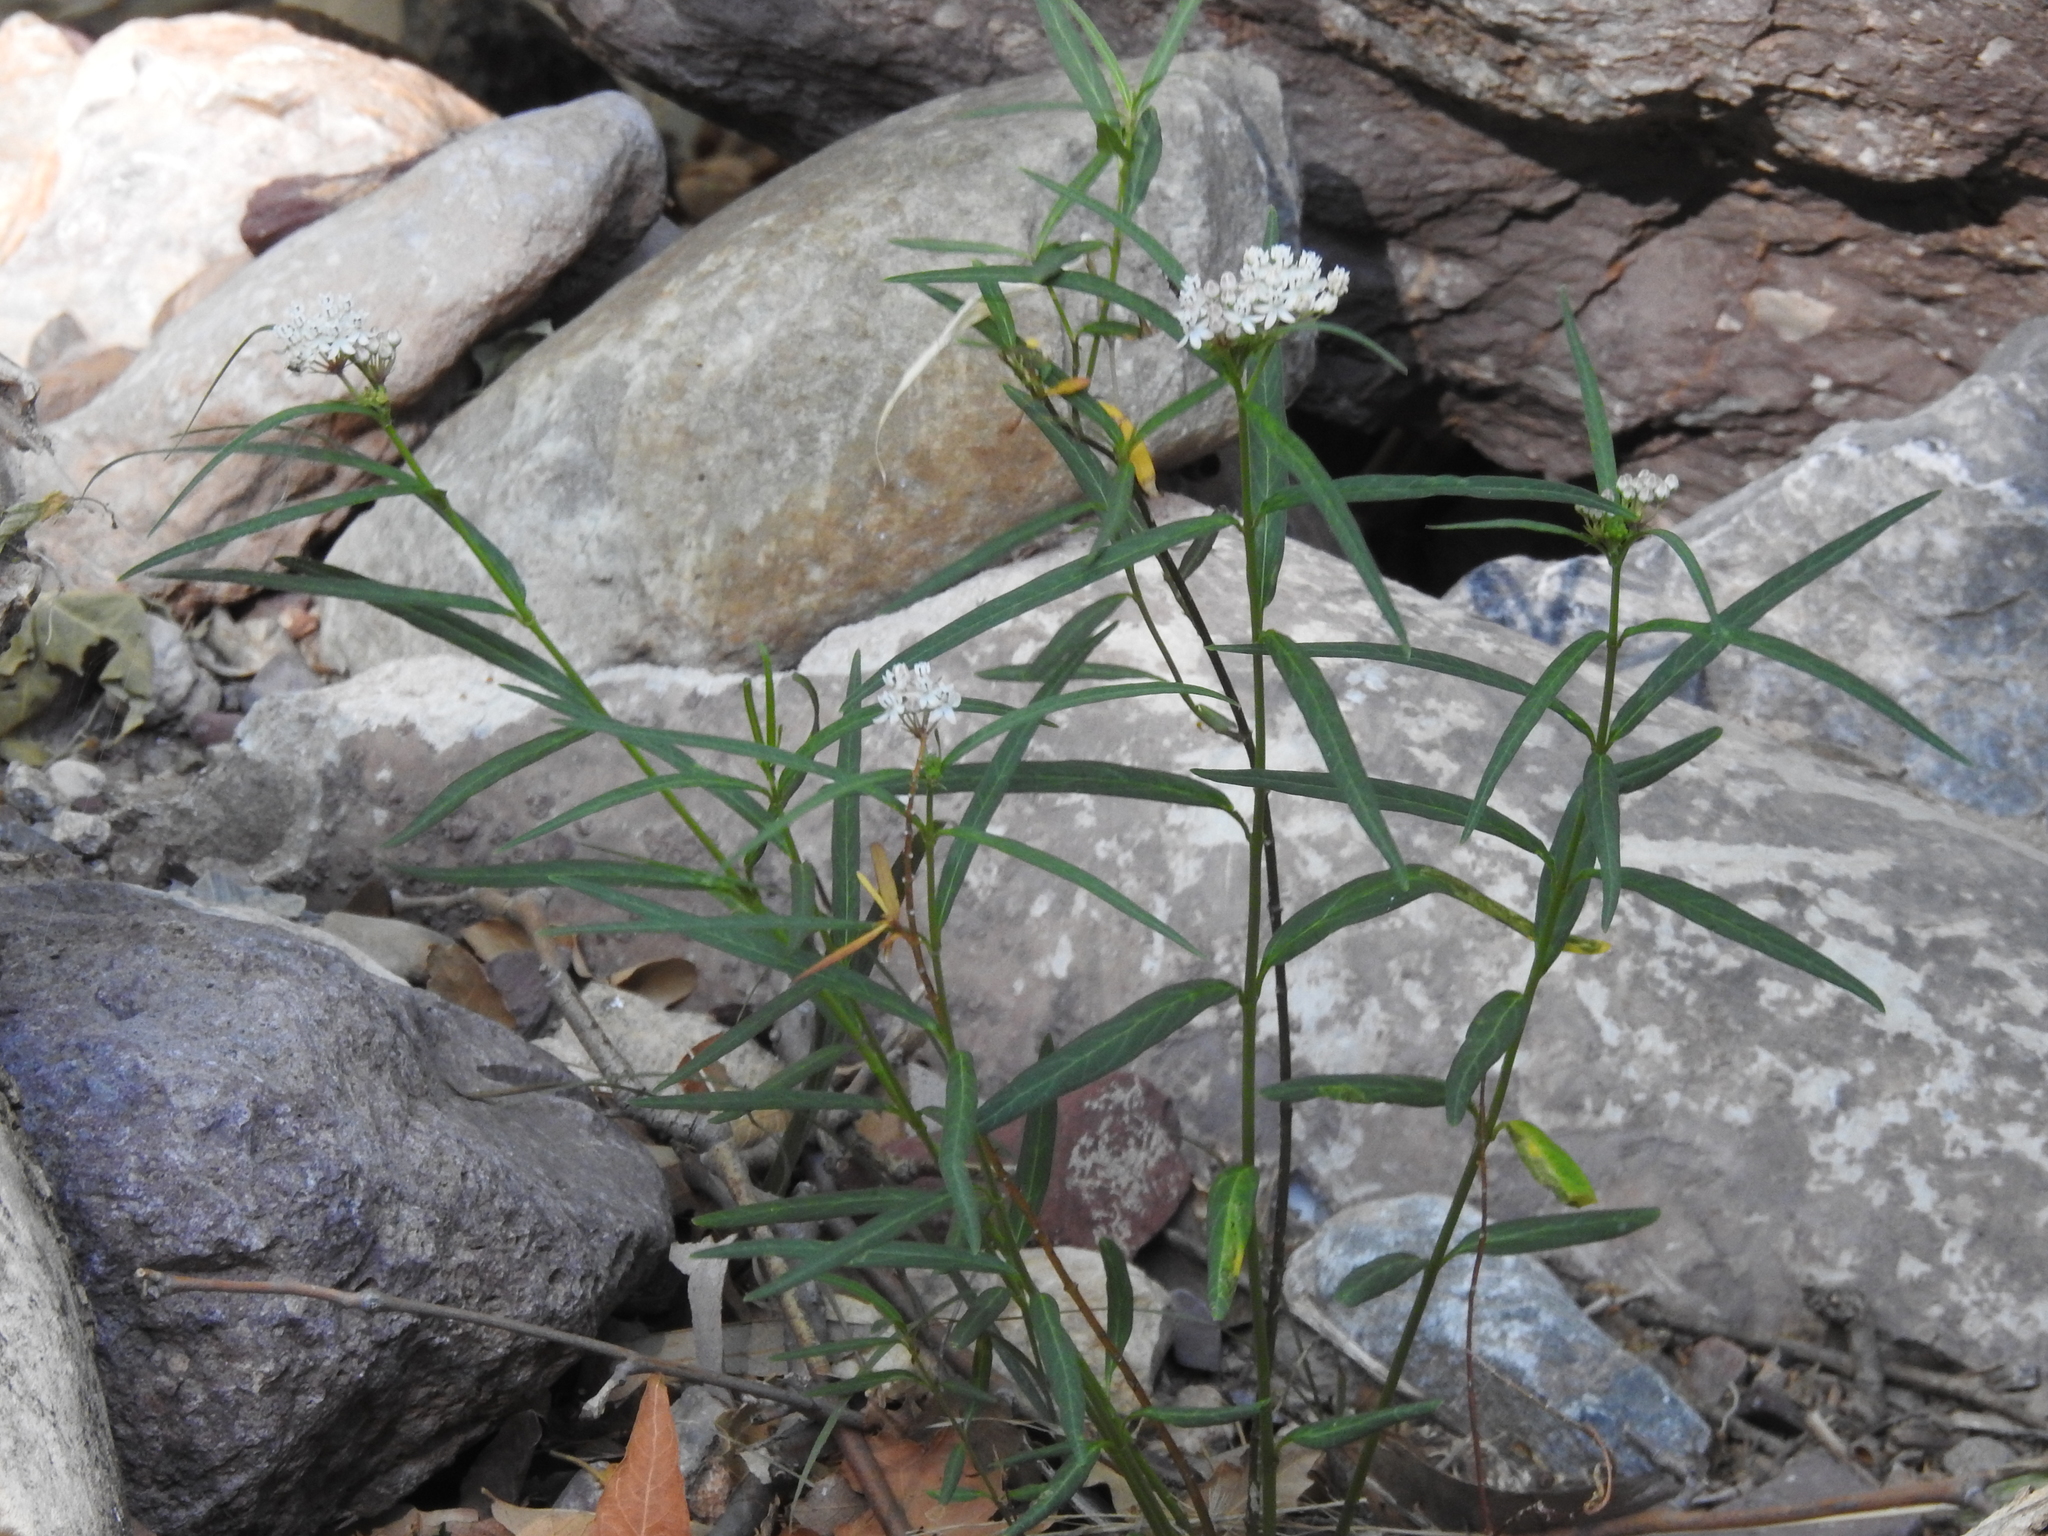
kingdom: Plantae
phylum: Tracheophyta
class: Magnoliopsida
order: Gentianales
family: Apocynaceae
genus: Asclepias
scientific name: Asclepias angustifolia
